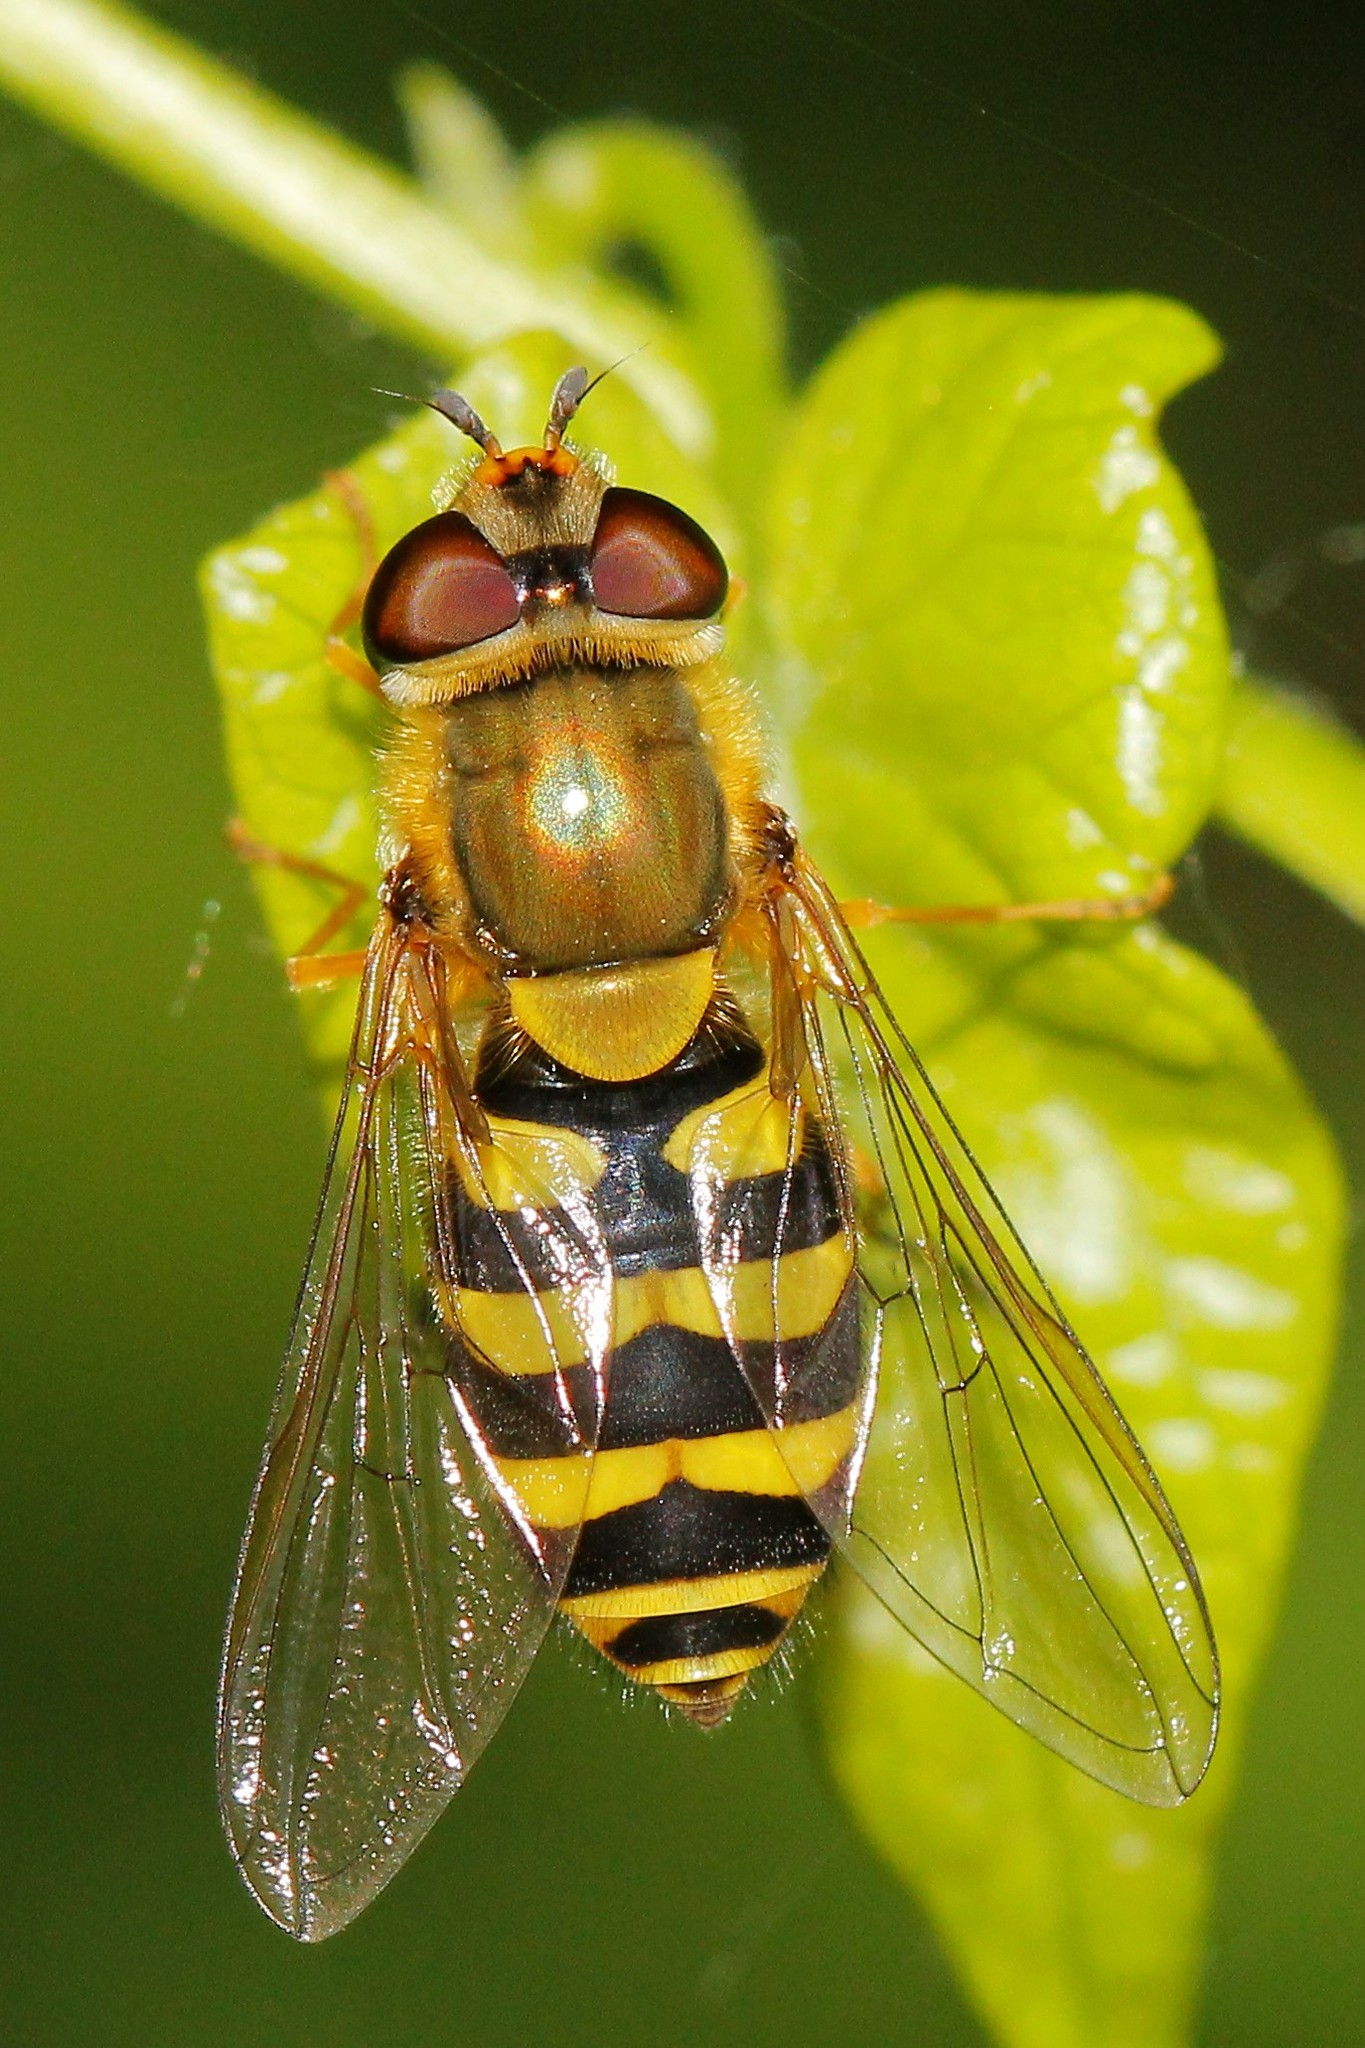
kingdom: Animalia
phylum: Arthropoda
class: Insecta
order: Diptera
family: Syrphidae
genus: Syrphus
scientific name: Syrphus
